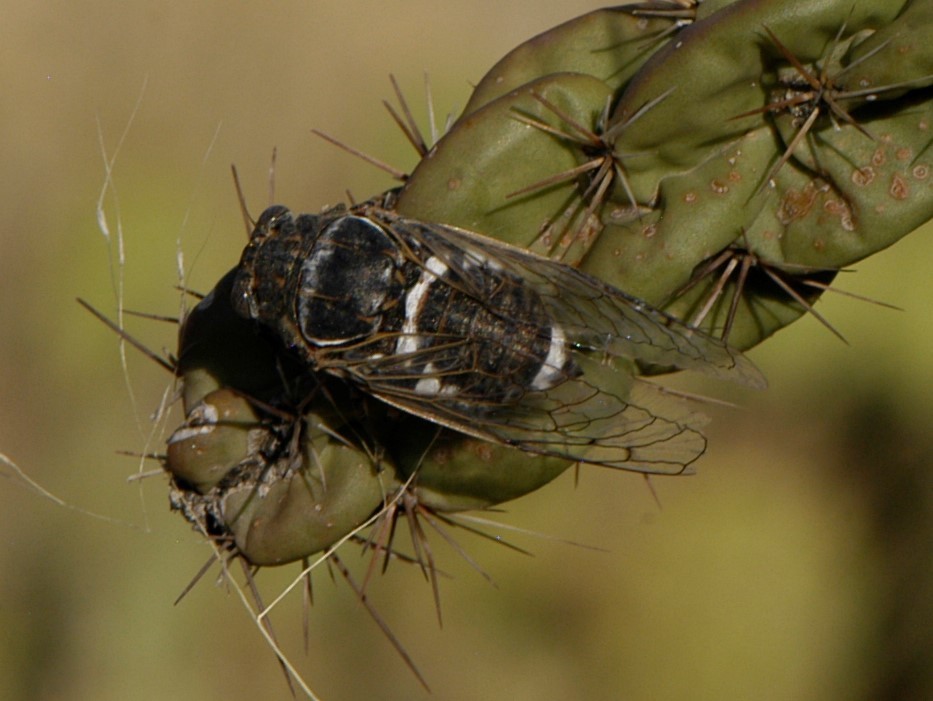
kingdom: Animalia
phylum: Arthropoda
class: Insecta
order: Hemiptera
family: Cicadidae
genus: Cacama
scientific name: Cacama valvata
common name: Cactus dodger
